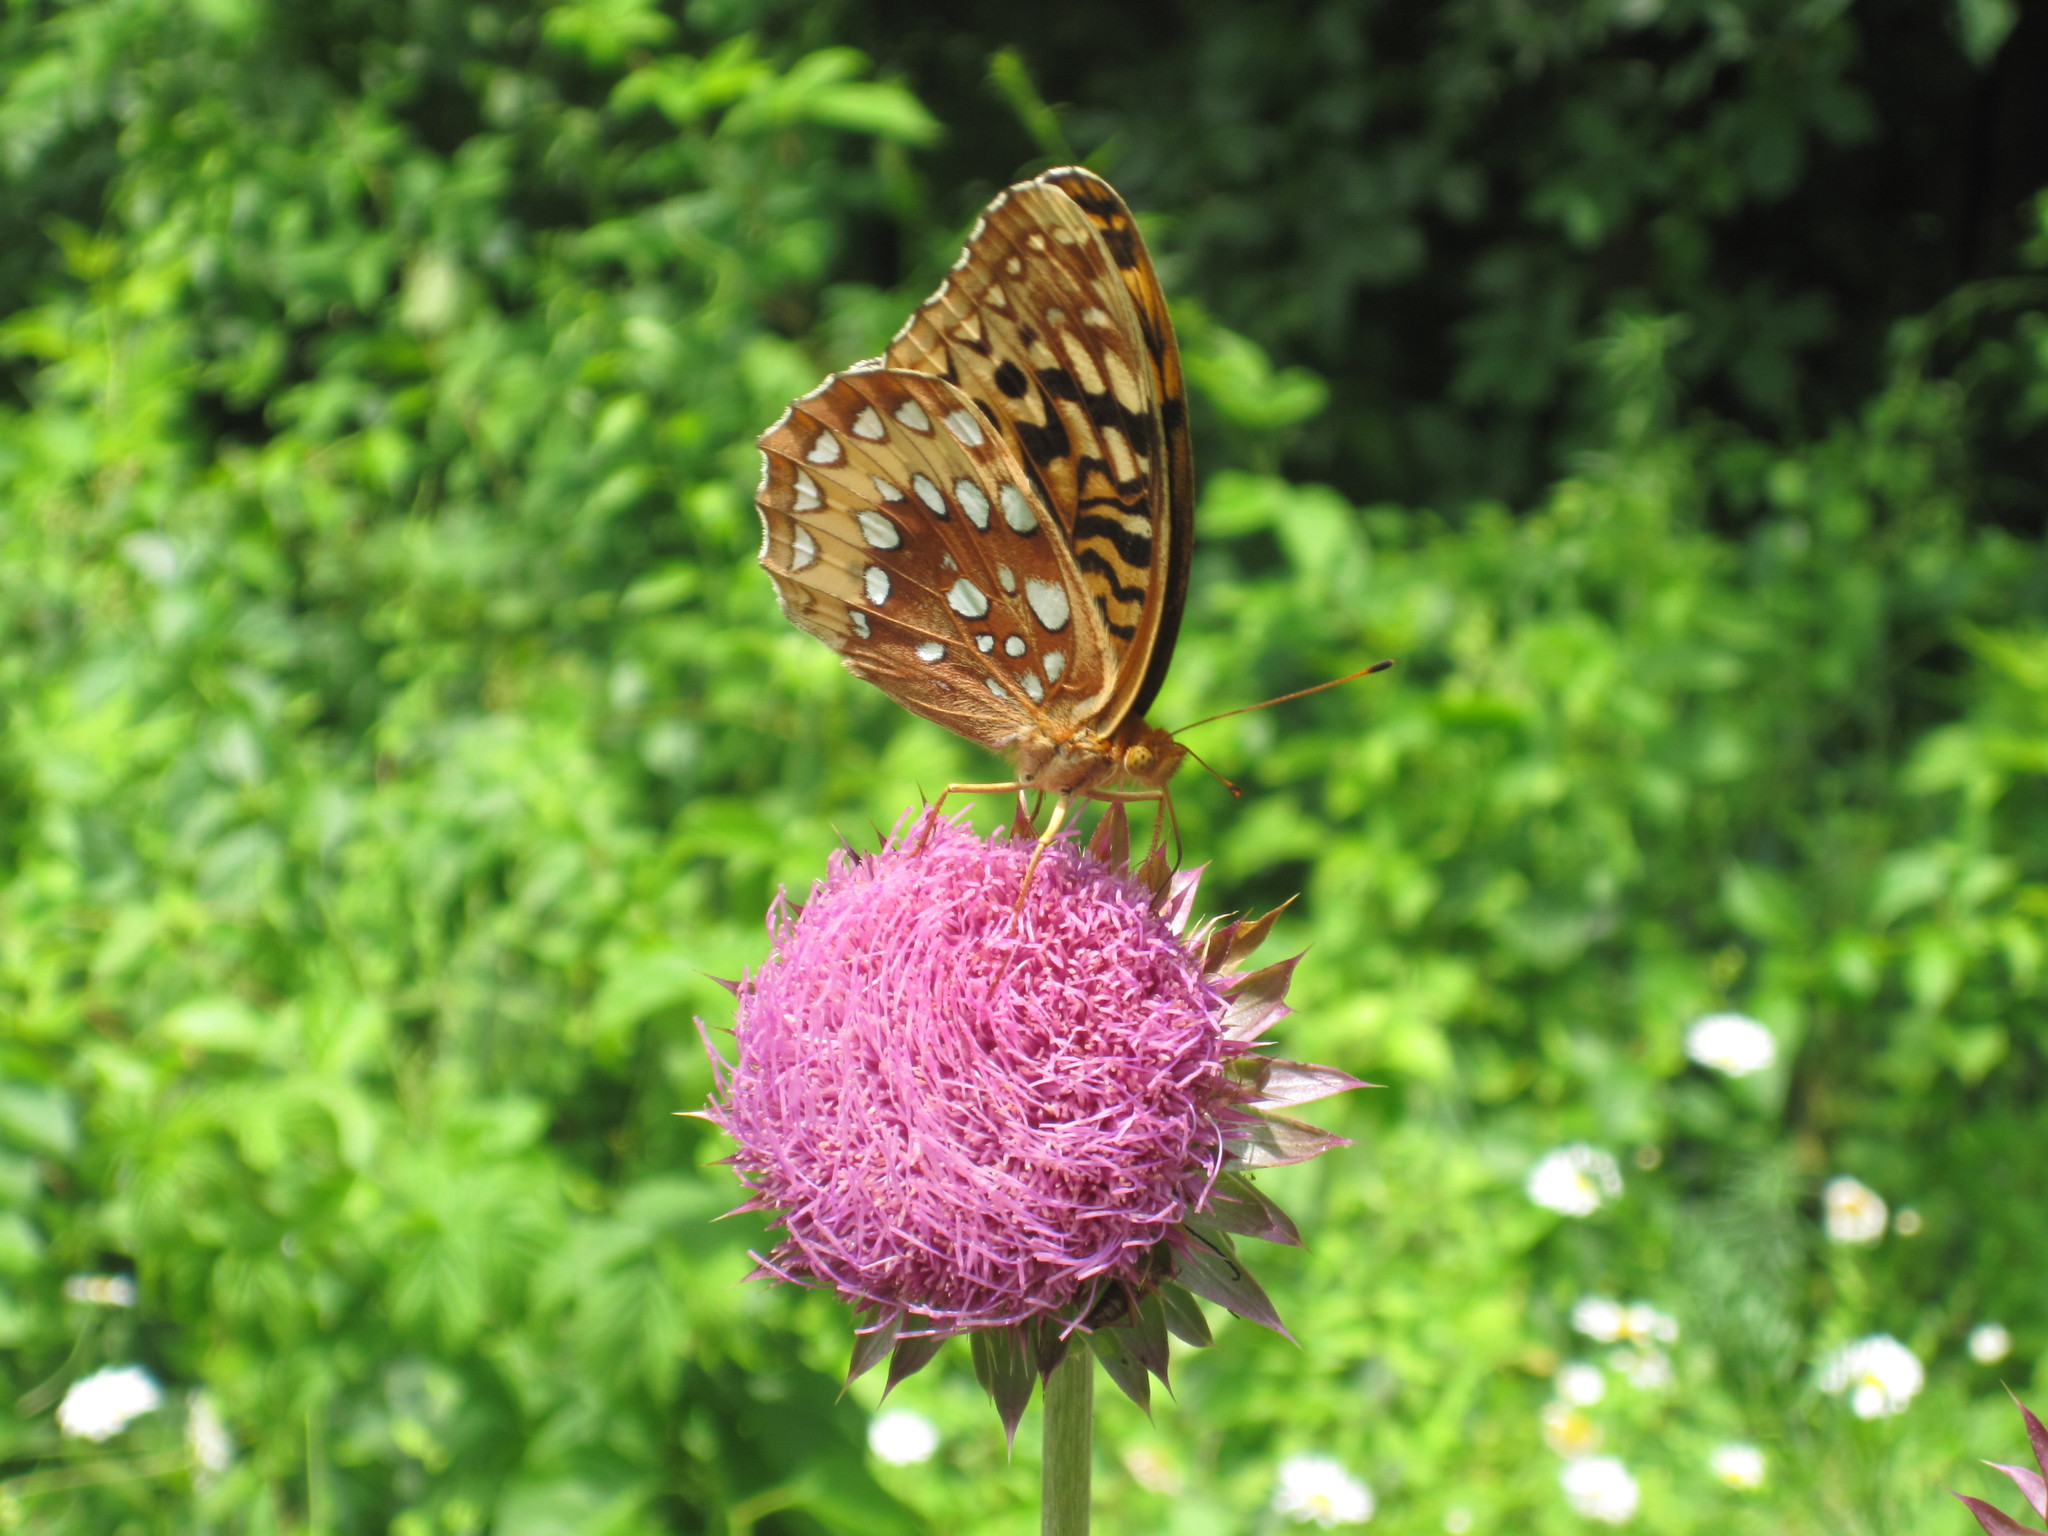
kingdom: Animalia
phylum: Arthropoda
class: Insecta
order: Lepidoptera
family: Nymphalidae
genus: Speyeria
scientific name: Speyeria cybele
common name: Great spangled fritillary
